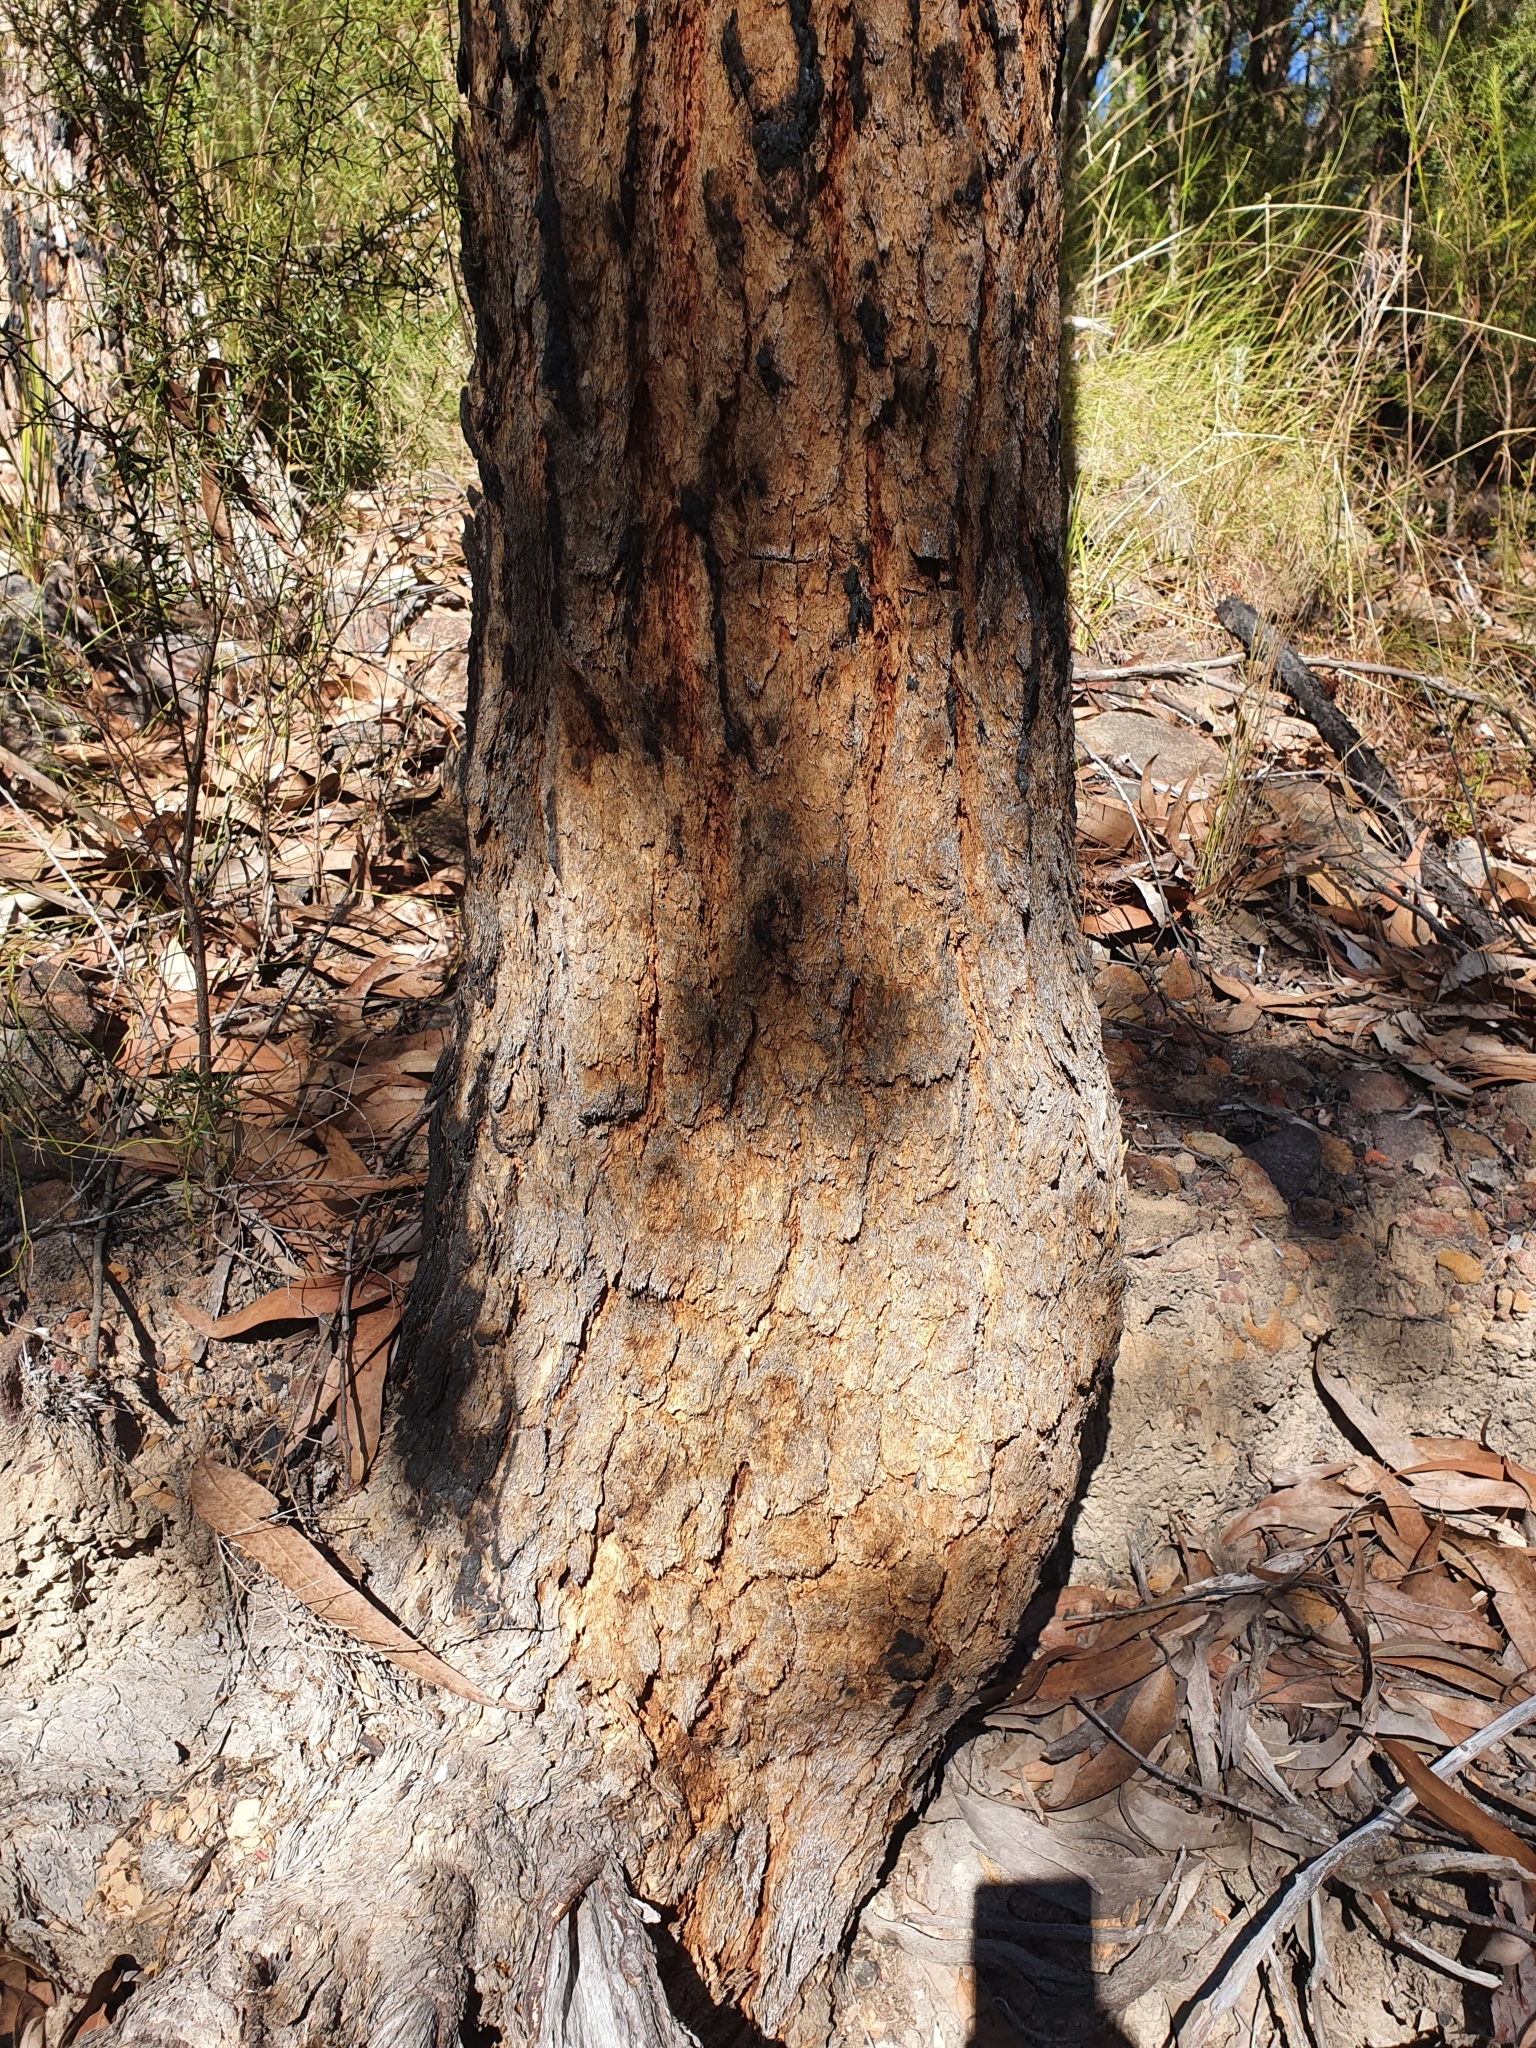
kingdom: Plantae
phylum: Tracheophyta
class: Magnoliopsida
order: Myrtales
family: Myrtaceae
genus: Corymbia
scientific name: Corymbia eximia
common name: Yellow bloodwood
